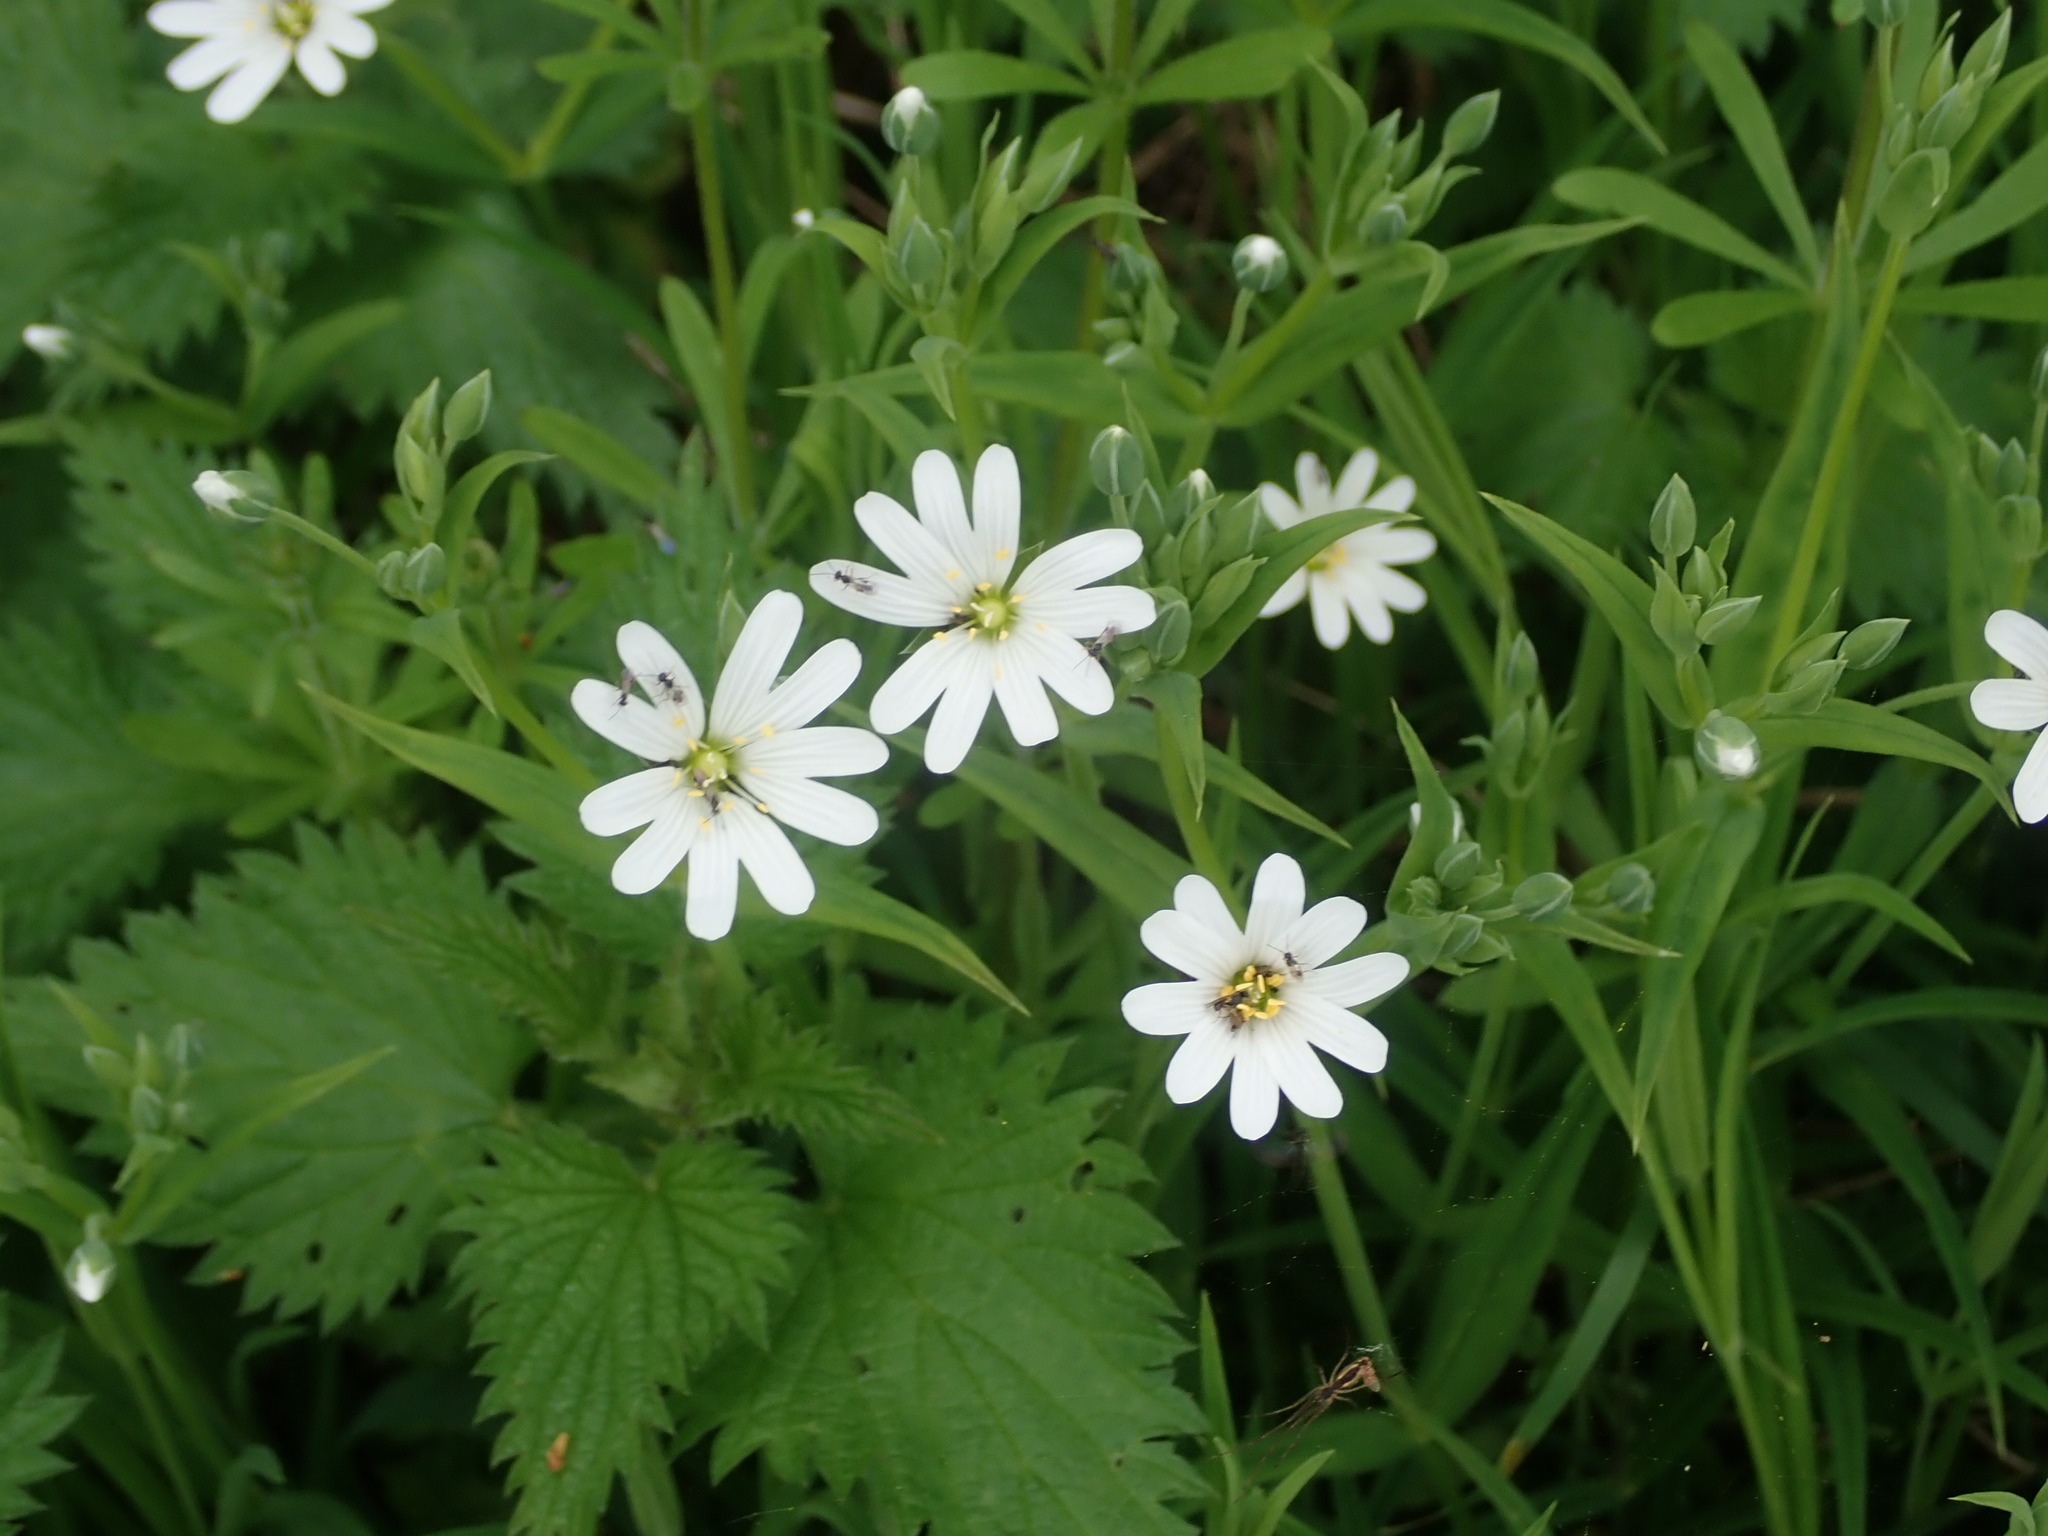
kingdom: Plantae
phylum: Tracheophyta
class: Magnoliopsida
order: Caryophyllales
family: Caryophyllaceae
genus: Rabelera
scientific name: Rabelera holostea
